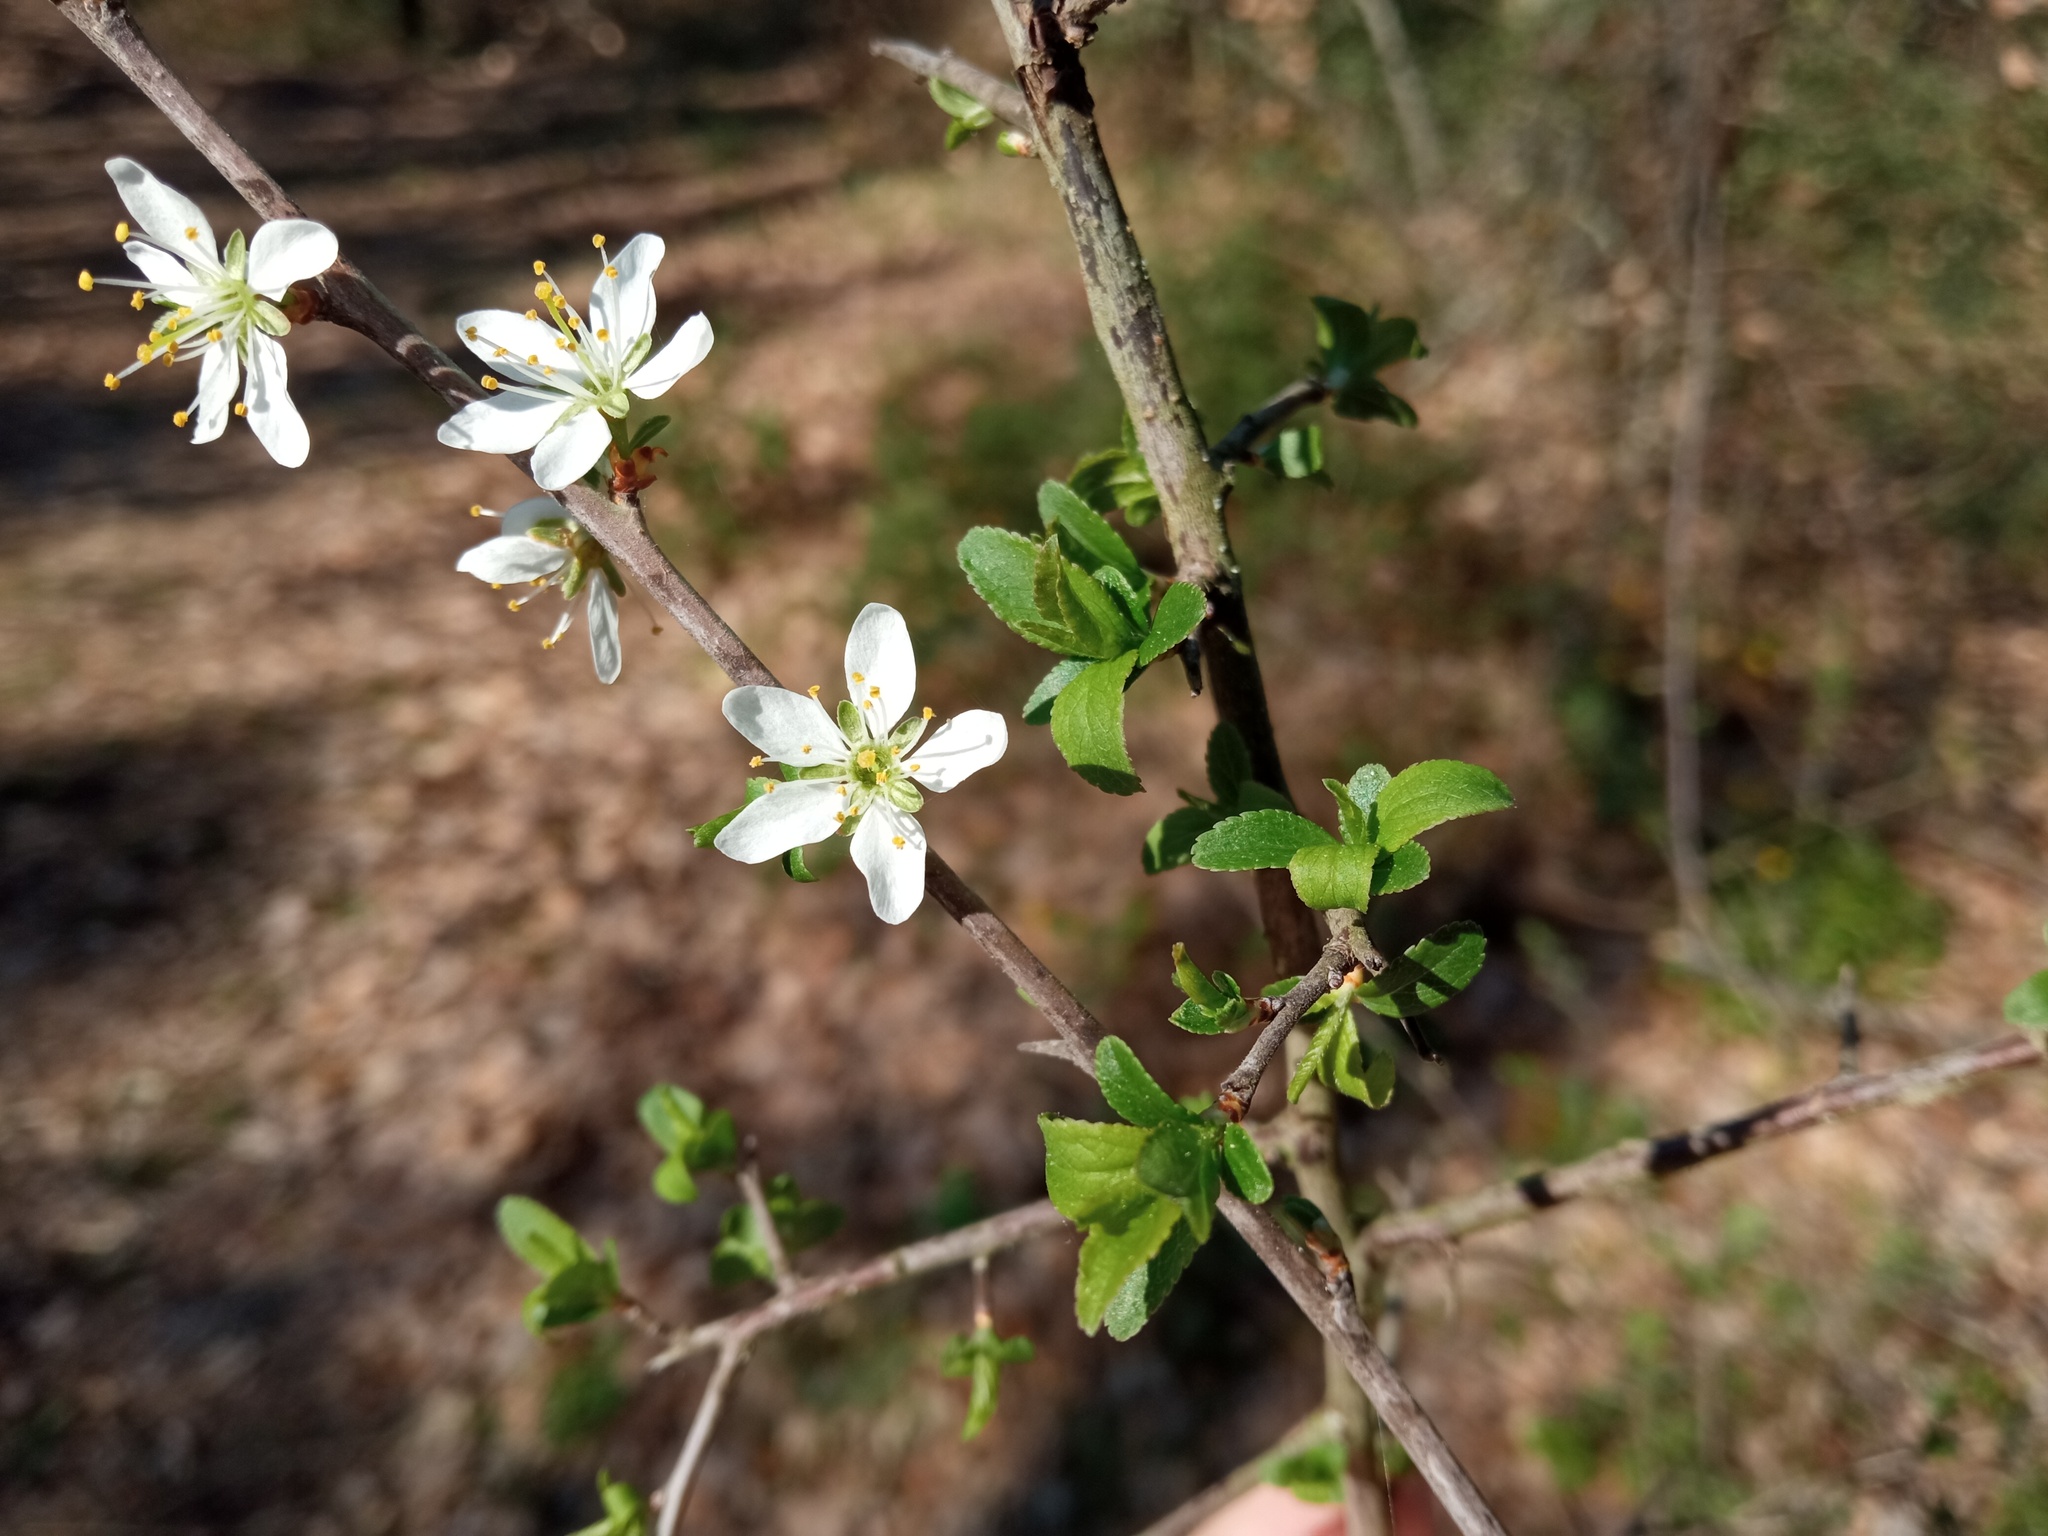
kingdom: Plantae
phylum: Tracheophyta
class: Magnoliopsida
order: Rosales
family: Rosaceae
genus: Prunus
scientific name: Prunus spinosa
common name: Blackthorn
